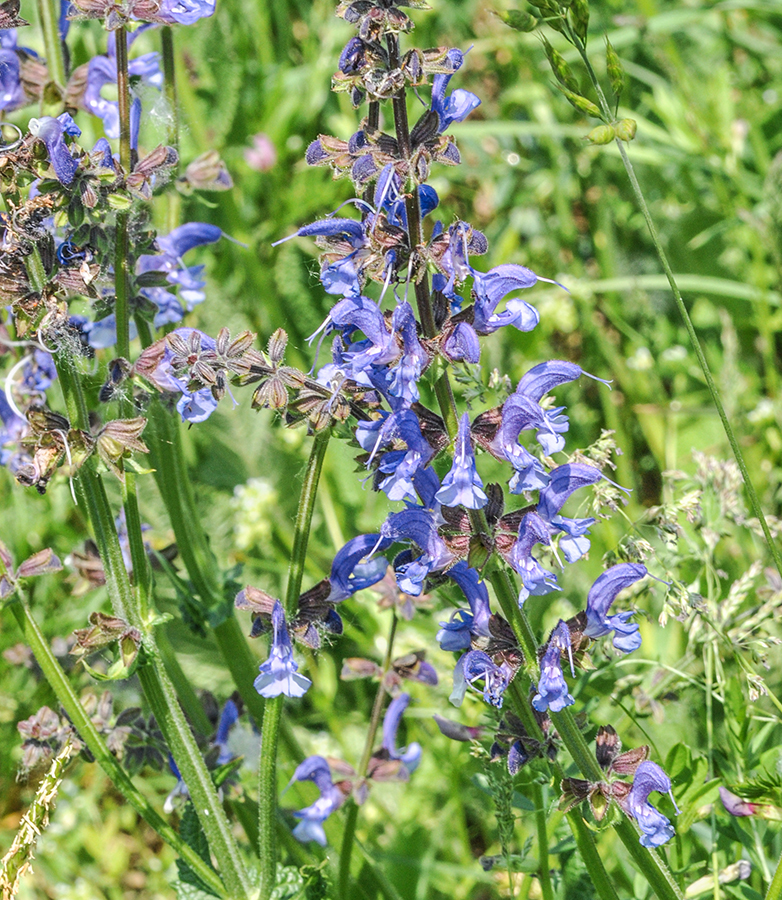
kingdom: Plantae
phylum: Tracheophyta
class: Magnoliopsida
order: Lamiales
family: Lamiaceae
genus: Salvia
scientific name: Salvia pratensis
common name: Meadow sage
